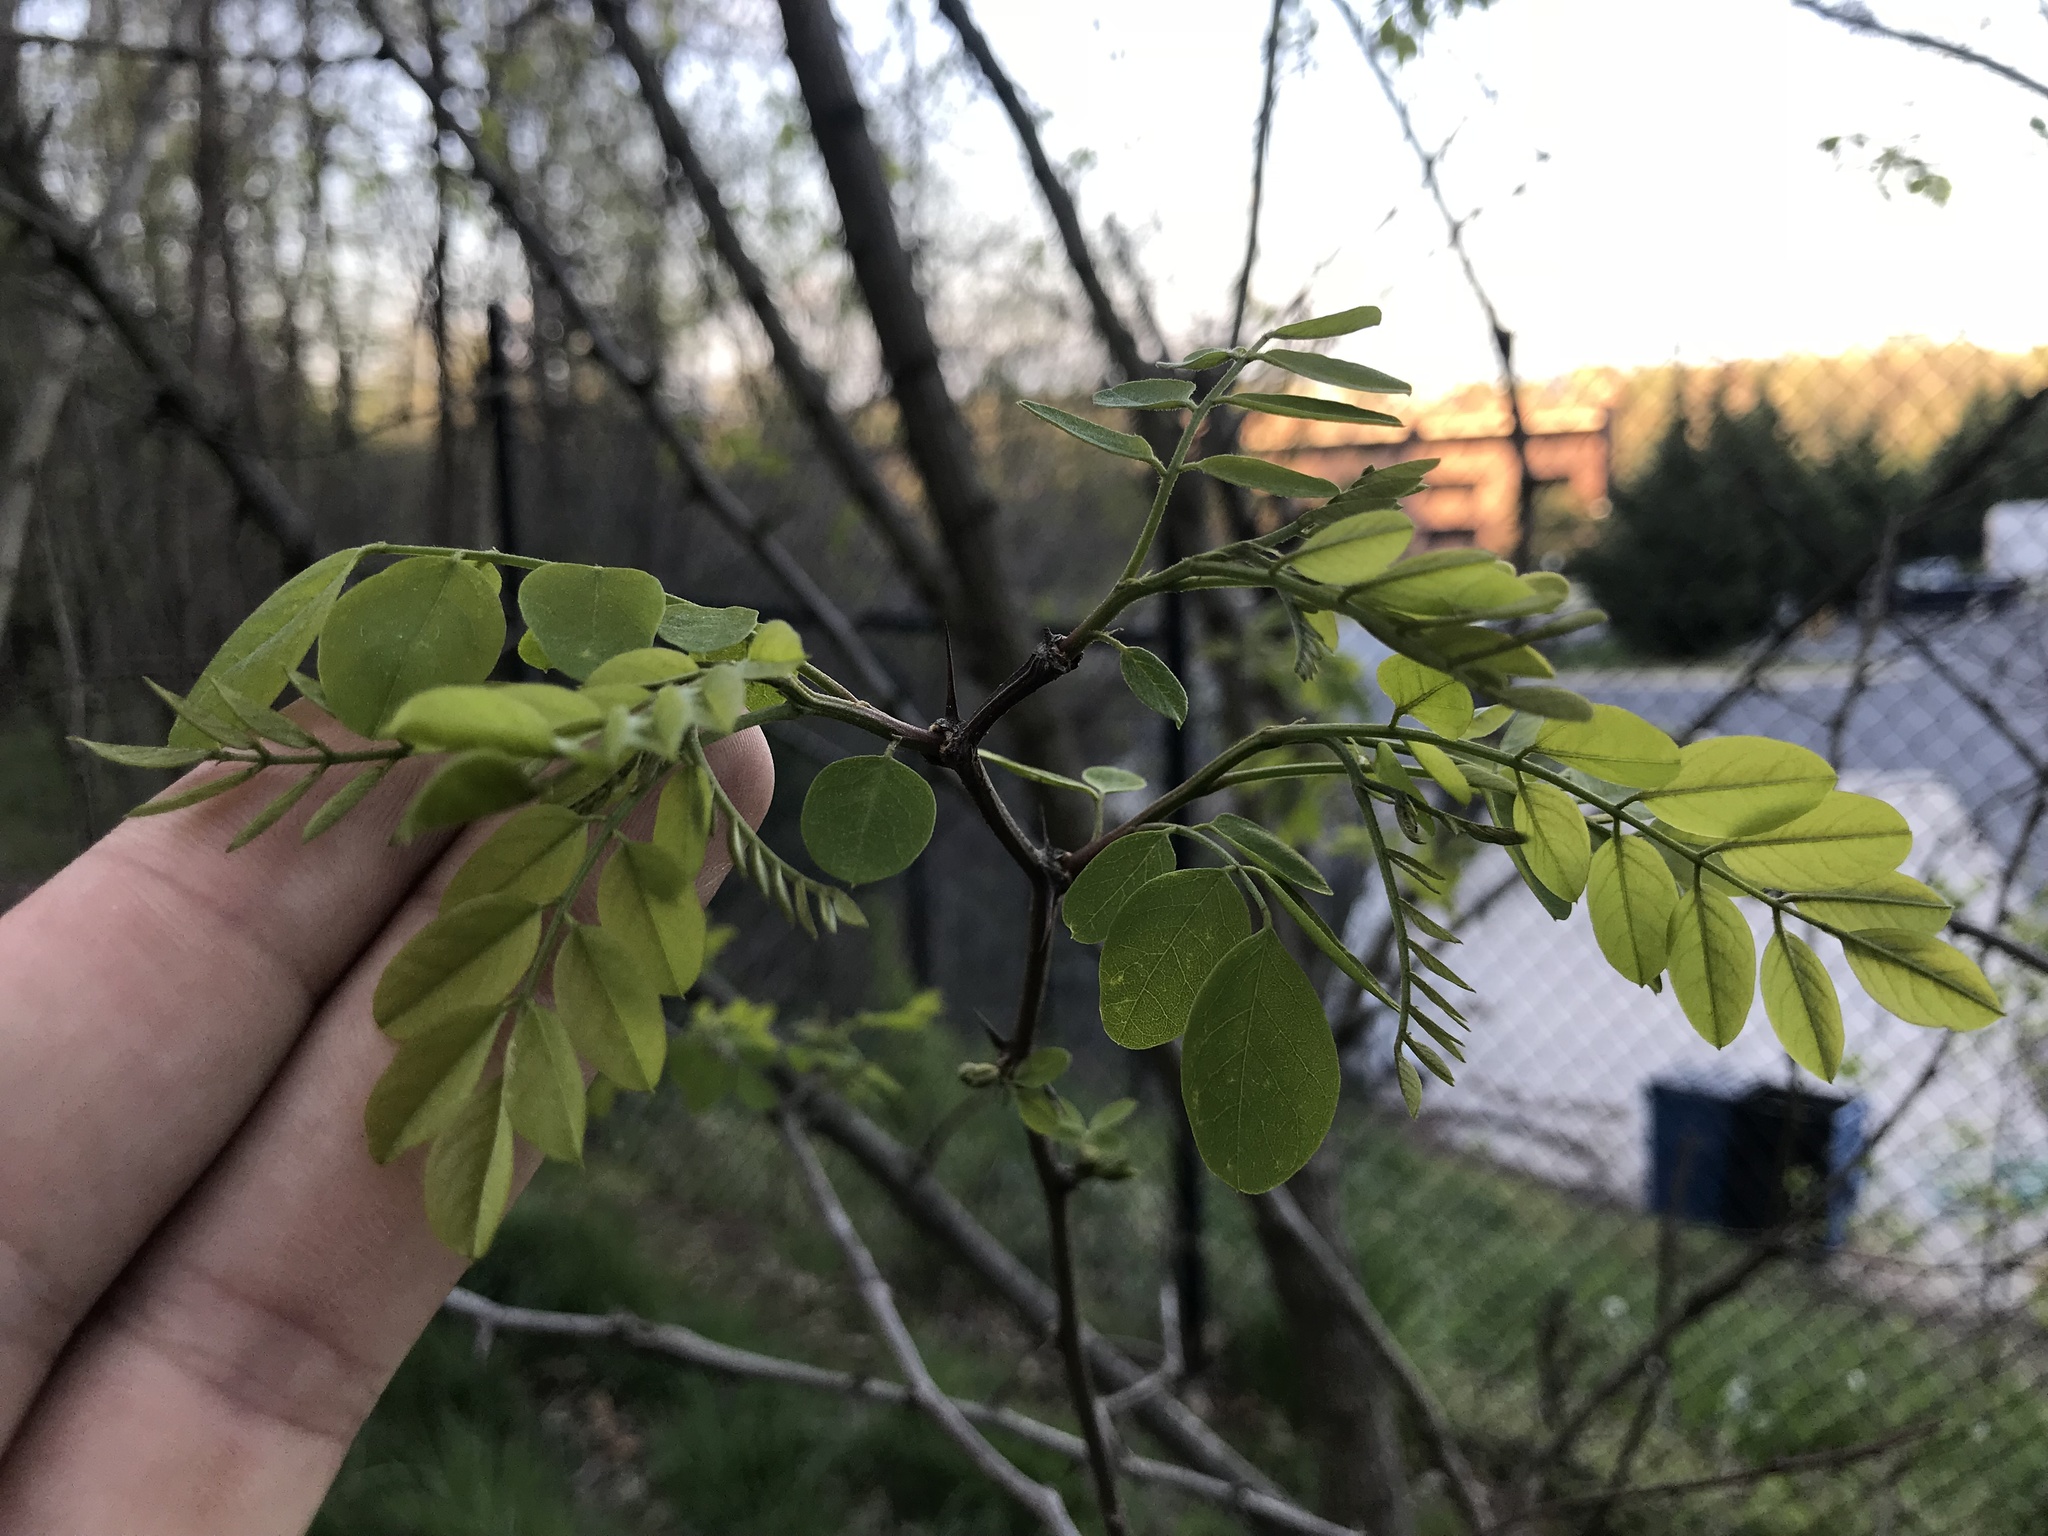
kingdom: Plantae
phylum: Tracheophyta
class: Magnoliopsida
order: Fabales
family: Fabaceae
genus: Robinia
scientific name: Robinia pseudoacacia
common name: Black locust
